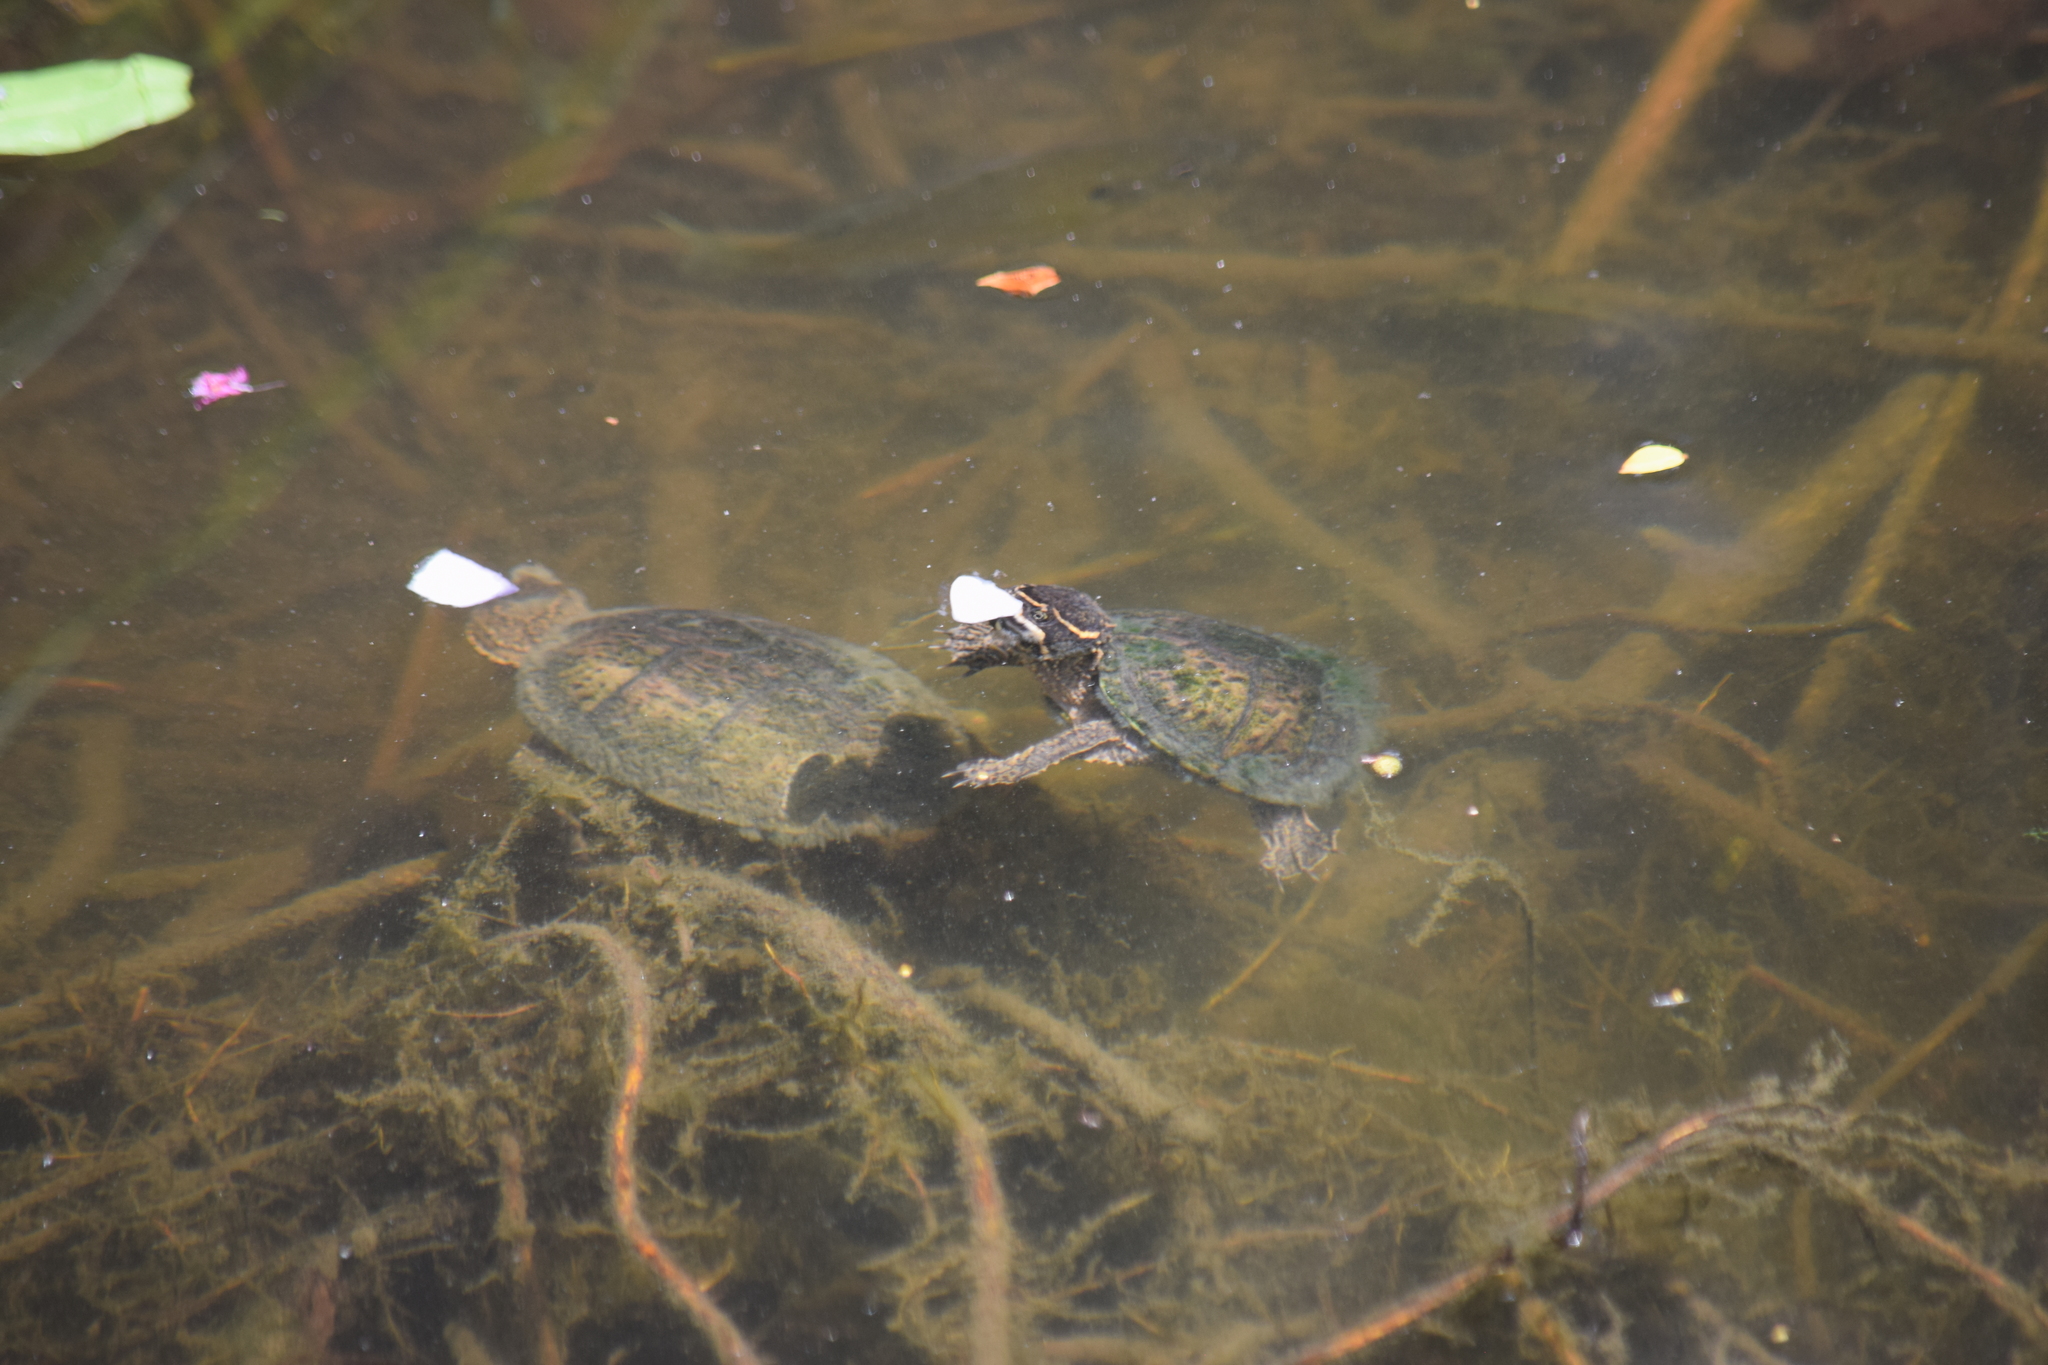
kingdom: Animalia
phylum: Chordata
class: Testudines
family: Kinosternidae
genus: Sternotherus
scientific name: Sternotherus odoratus
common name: Common musk turtle
